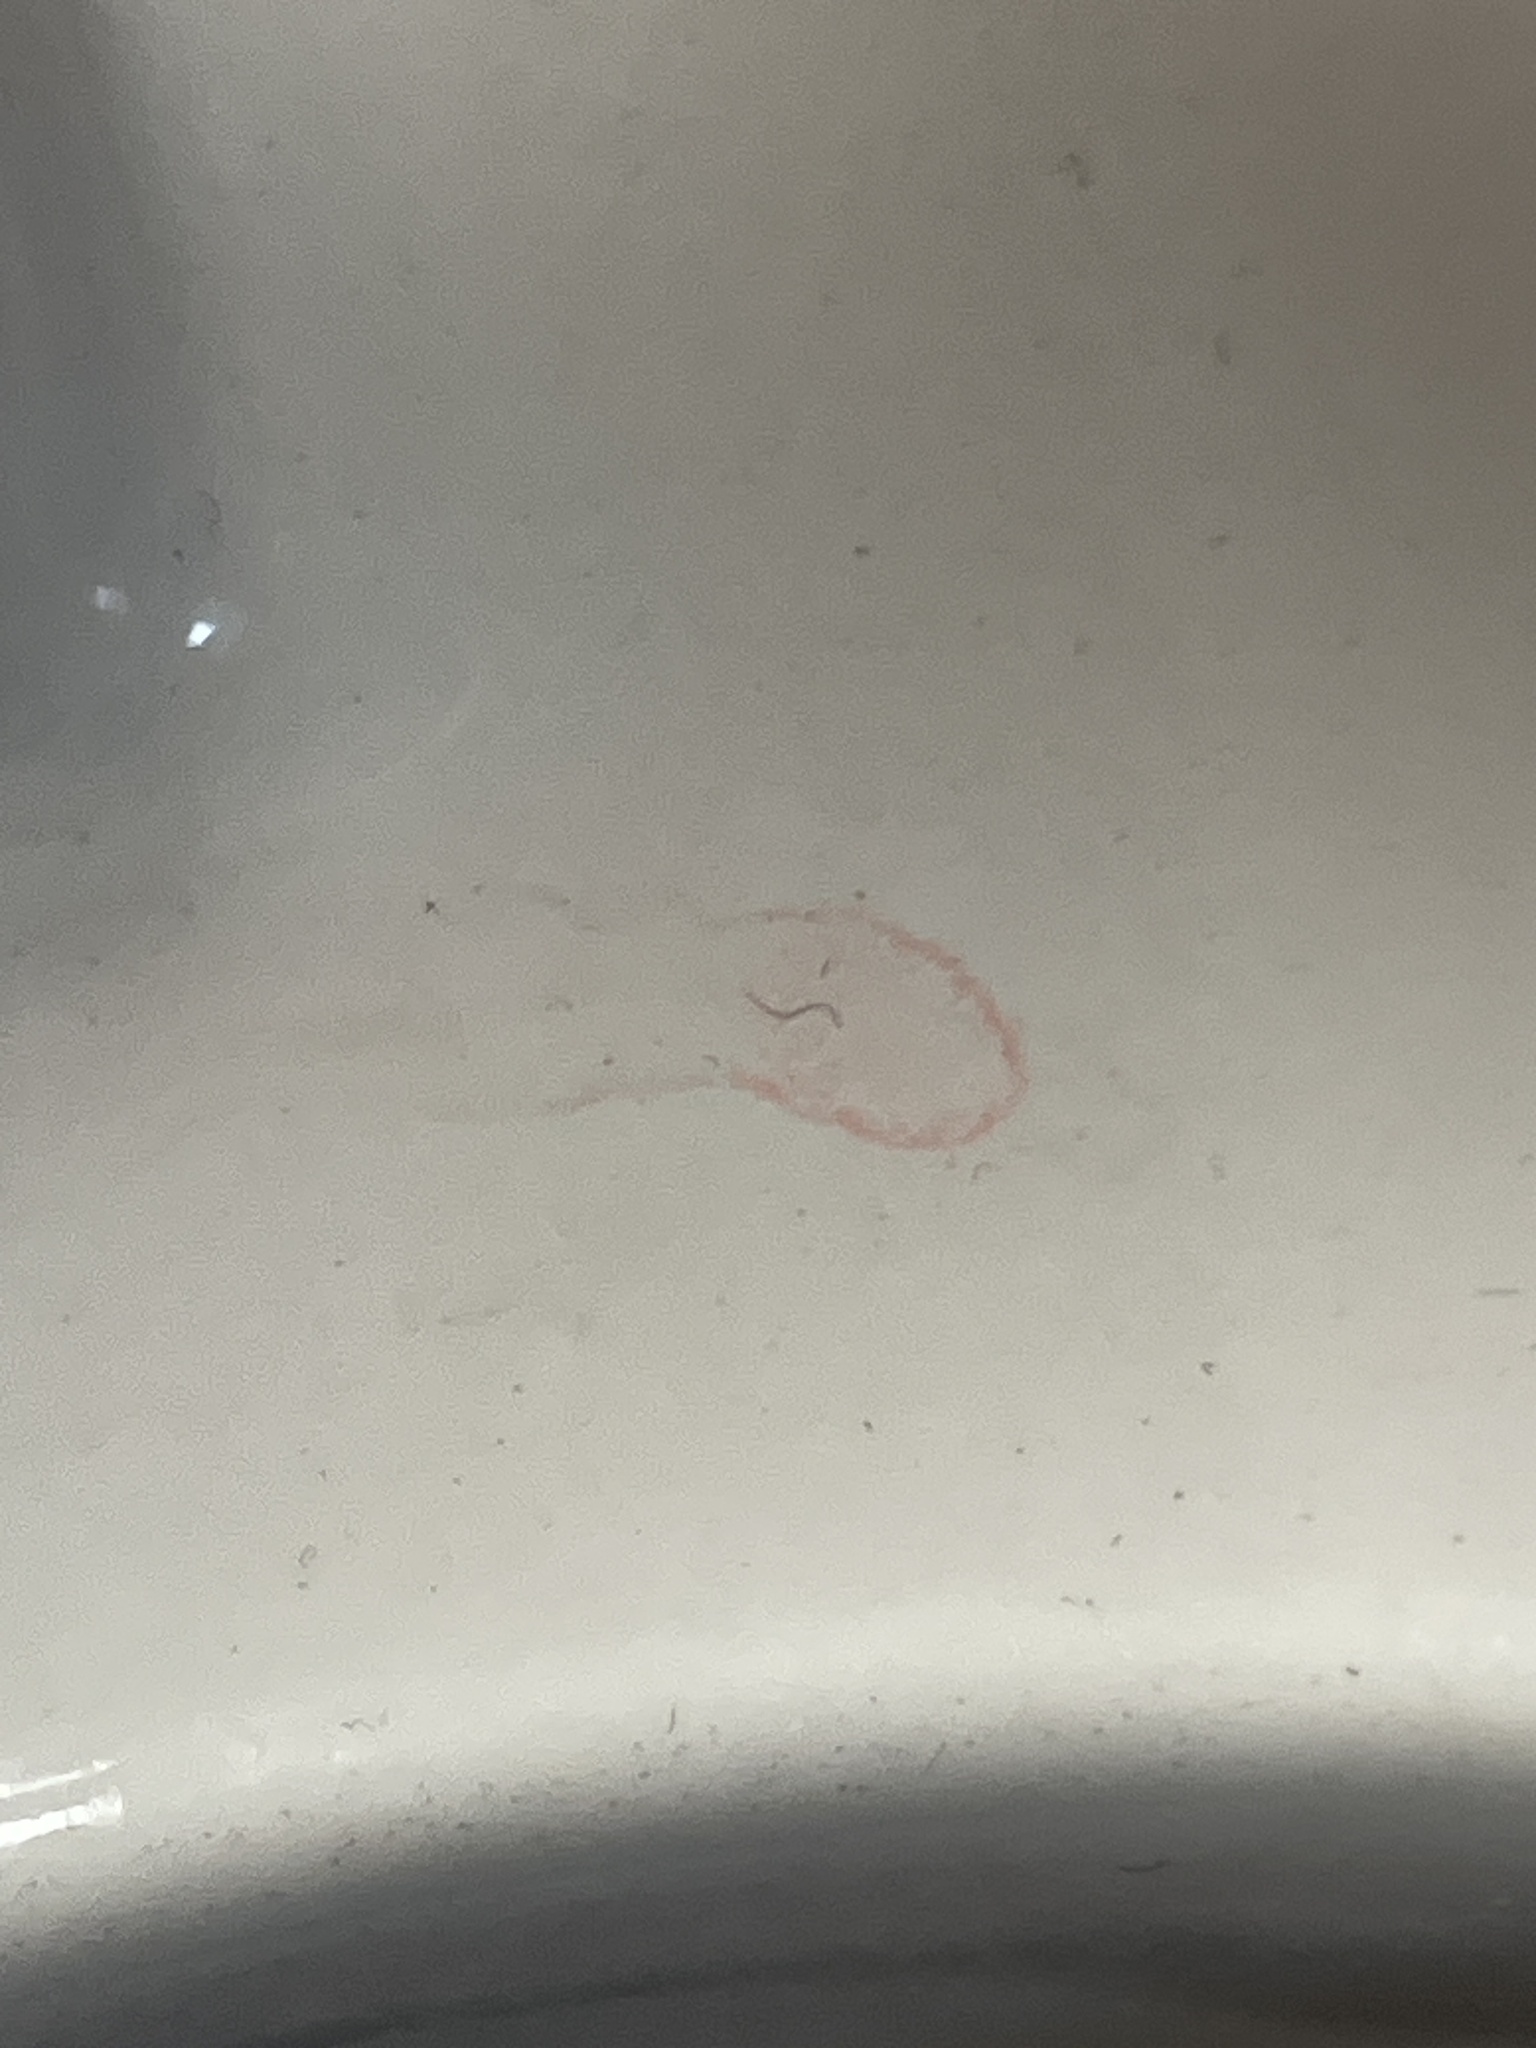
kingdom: Bacteria
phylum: Proteobacteria
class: Gammaproteobacteria
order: Enterobacterales
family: Enterobacteriaceae
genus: Serratia
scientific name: Serratia marcescens
